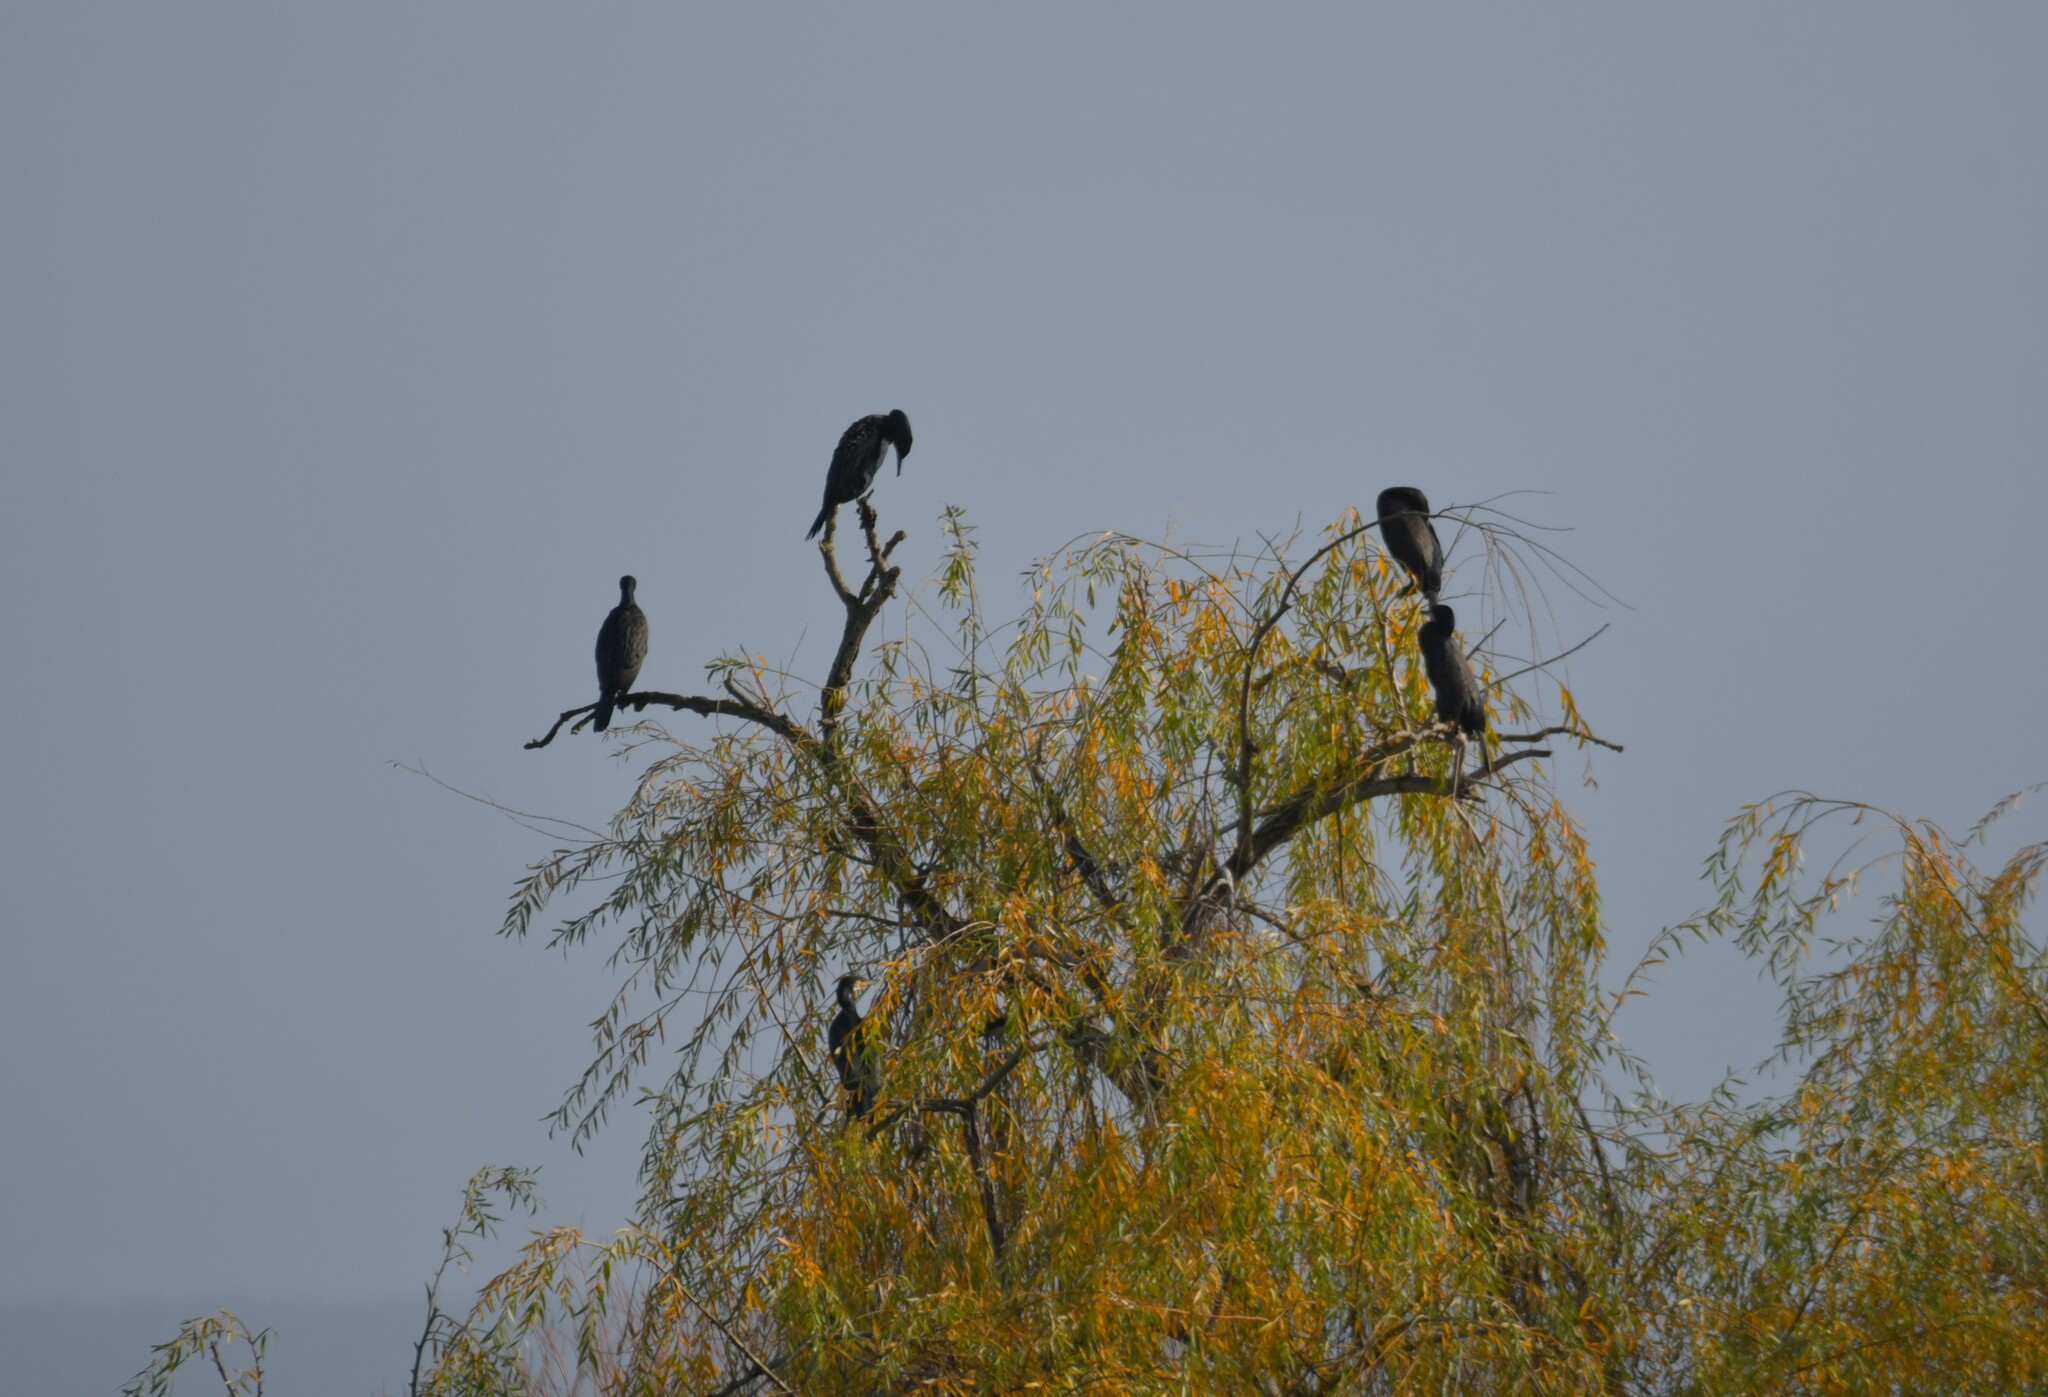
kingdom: Animalia
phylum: Chordata
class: Aves
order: Suliformes
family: Phalacrocoracidae
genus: Phalacrocorax
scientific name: Phalacrocorax carbo
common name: Great cormorant
